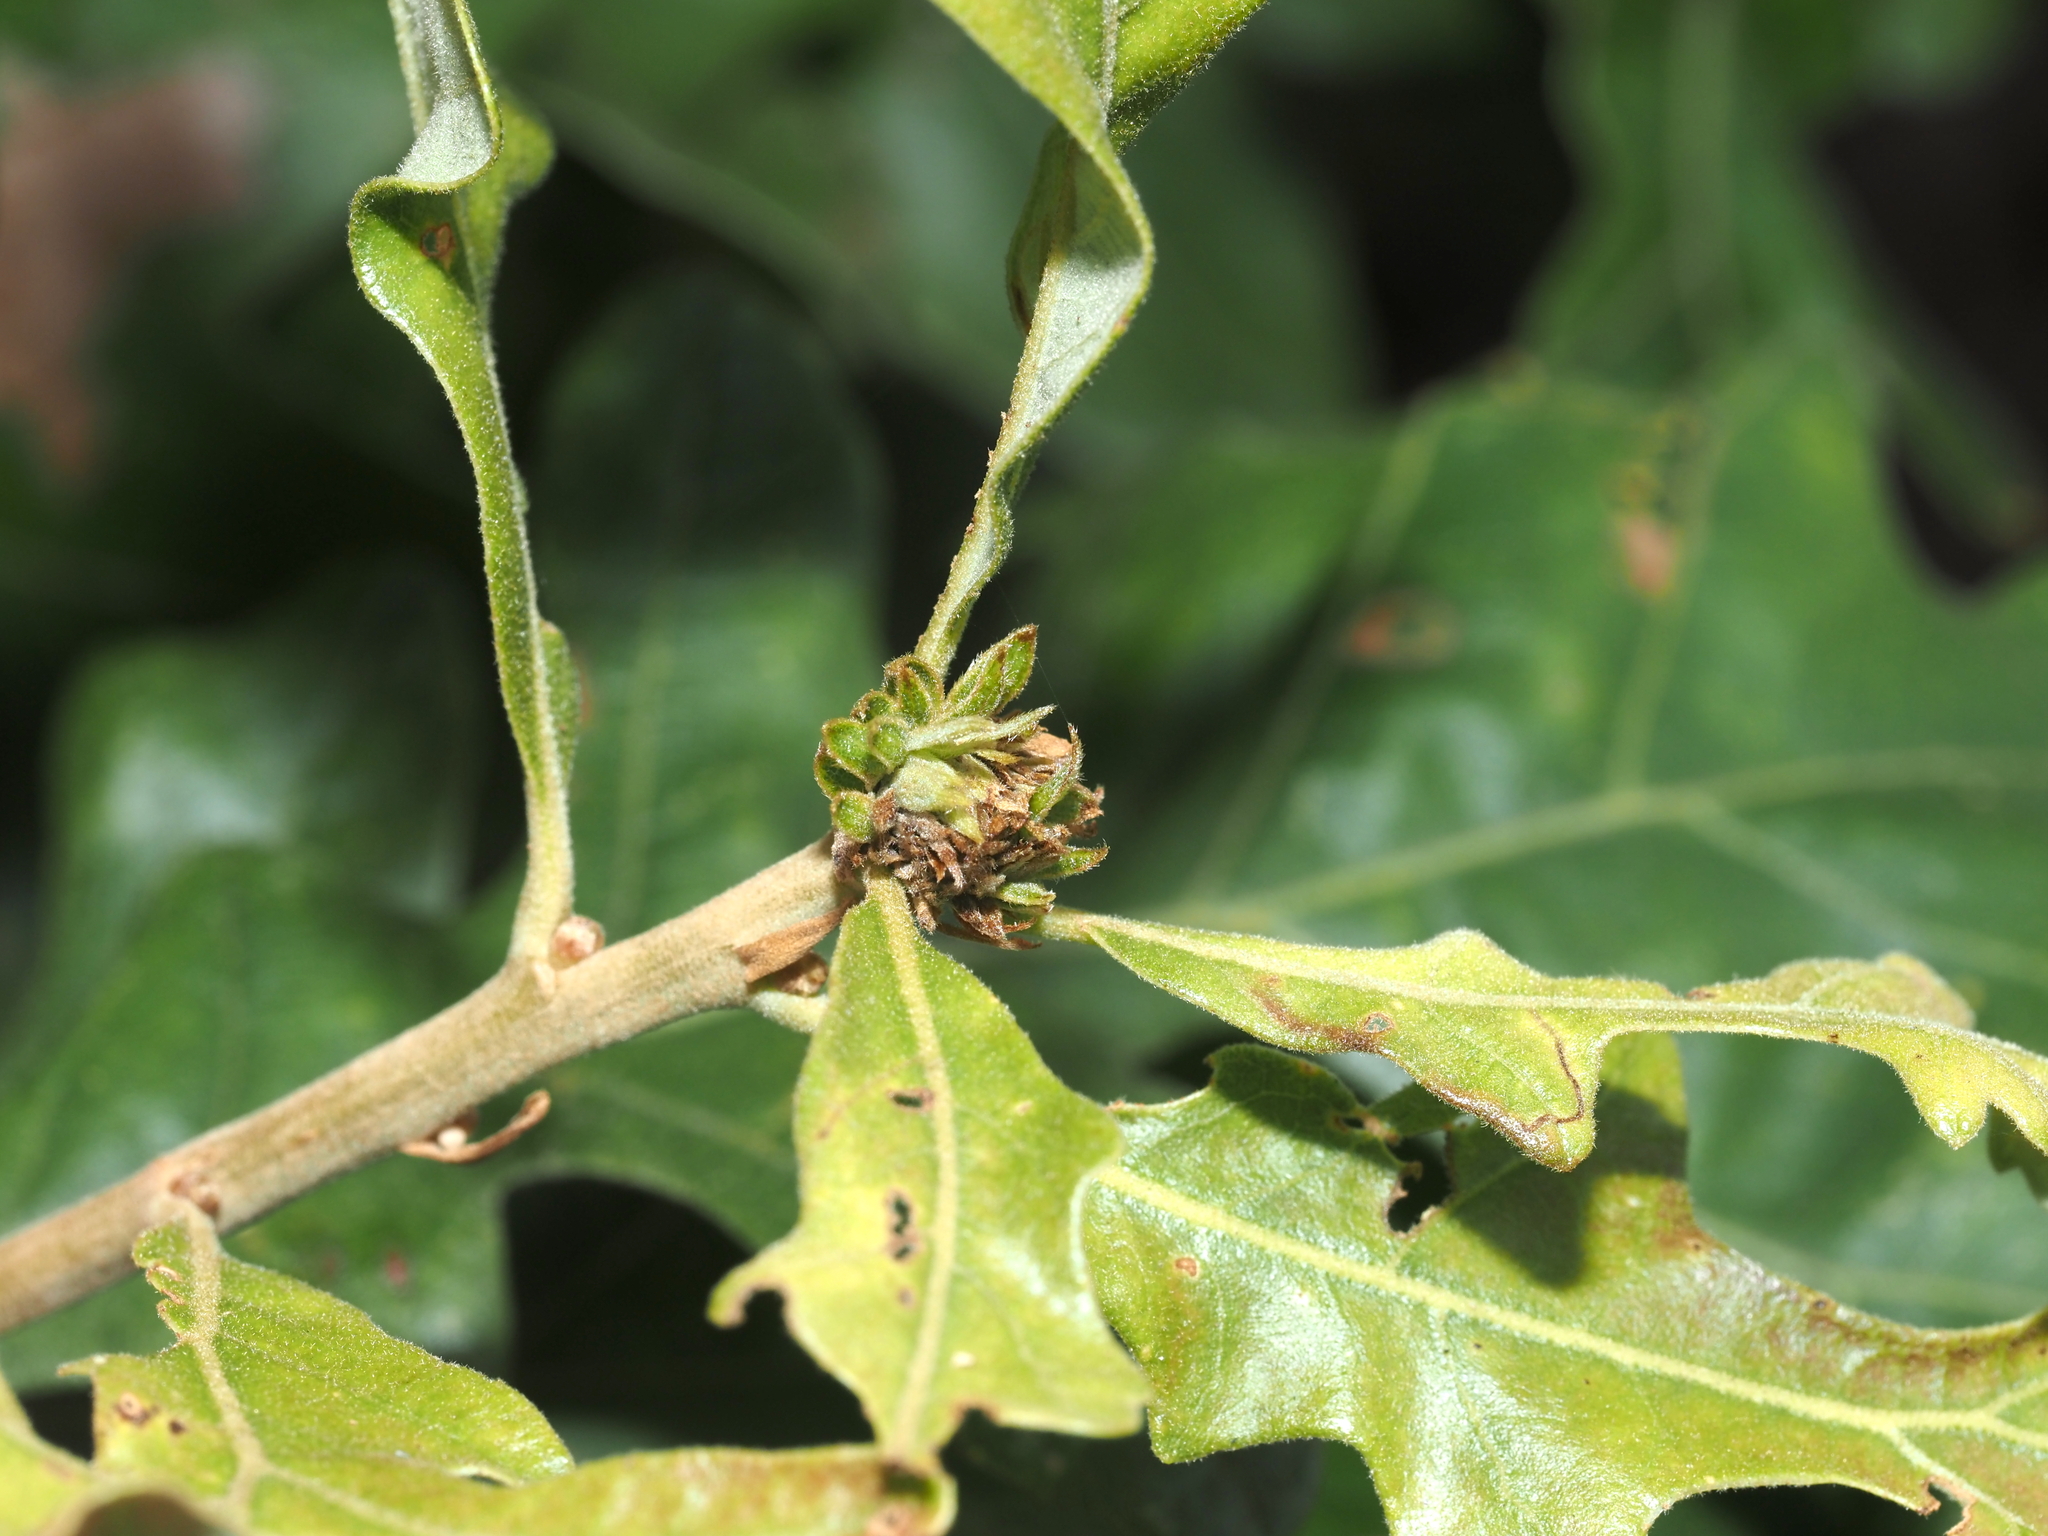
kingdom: Animalia
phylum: Arthropoda
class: Insecta
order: Hymenoptera
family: Cynipidae
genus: Andricus
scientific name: Andricus
